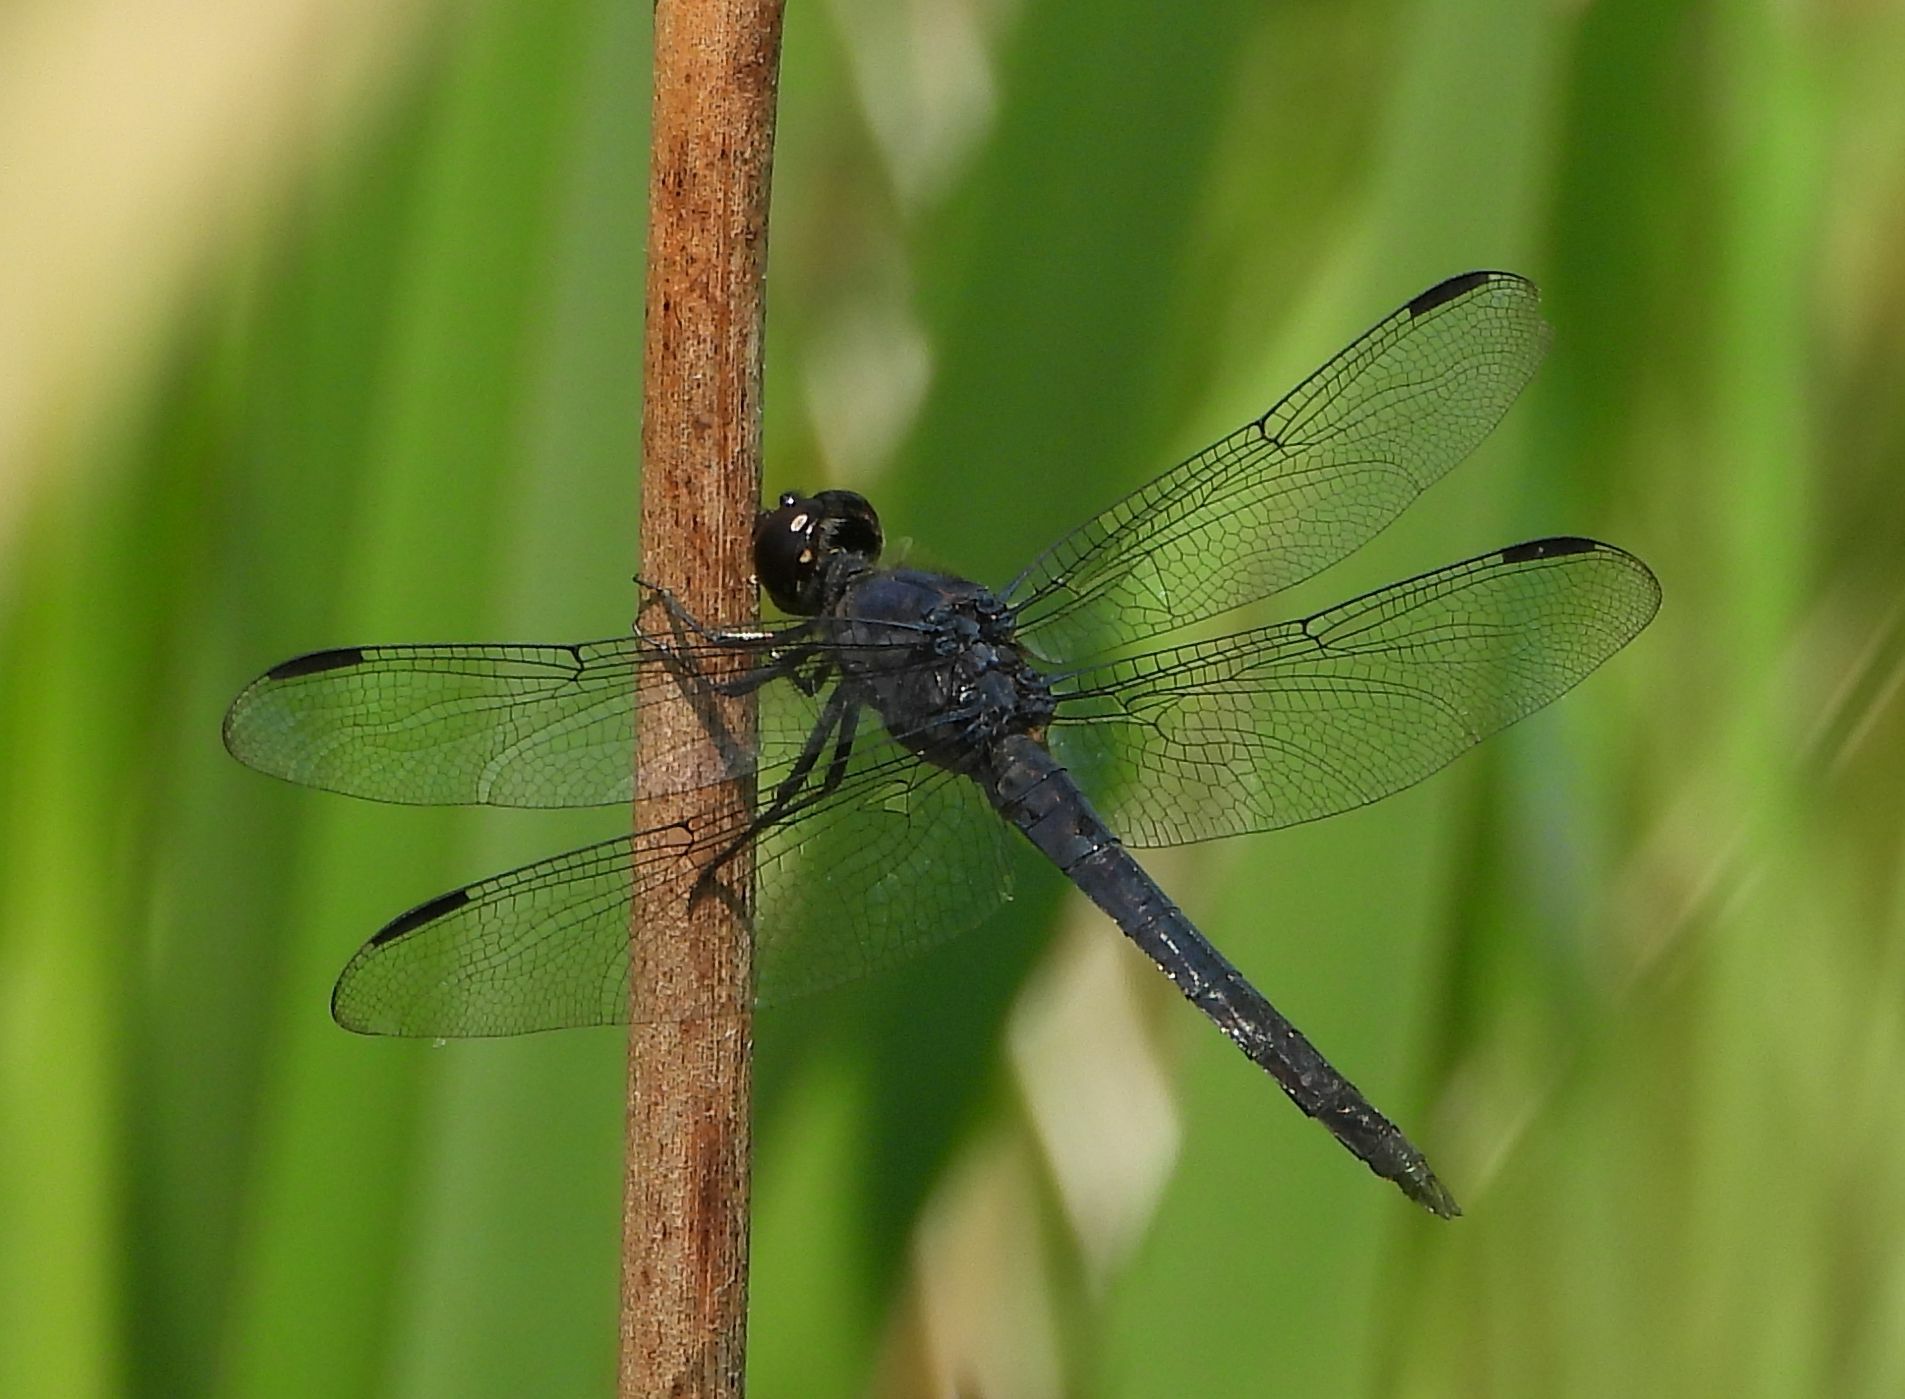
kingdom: Animalia
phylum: Arthropoda
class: Insecta
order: Odonata
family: Libellulidae
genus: Libellula
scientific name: Libellula incesta
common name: Slaty skimmer
